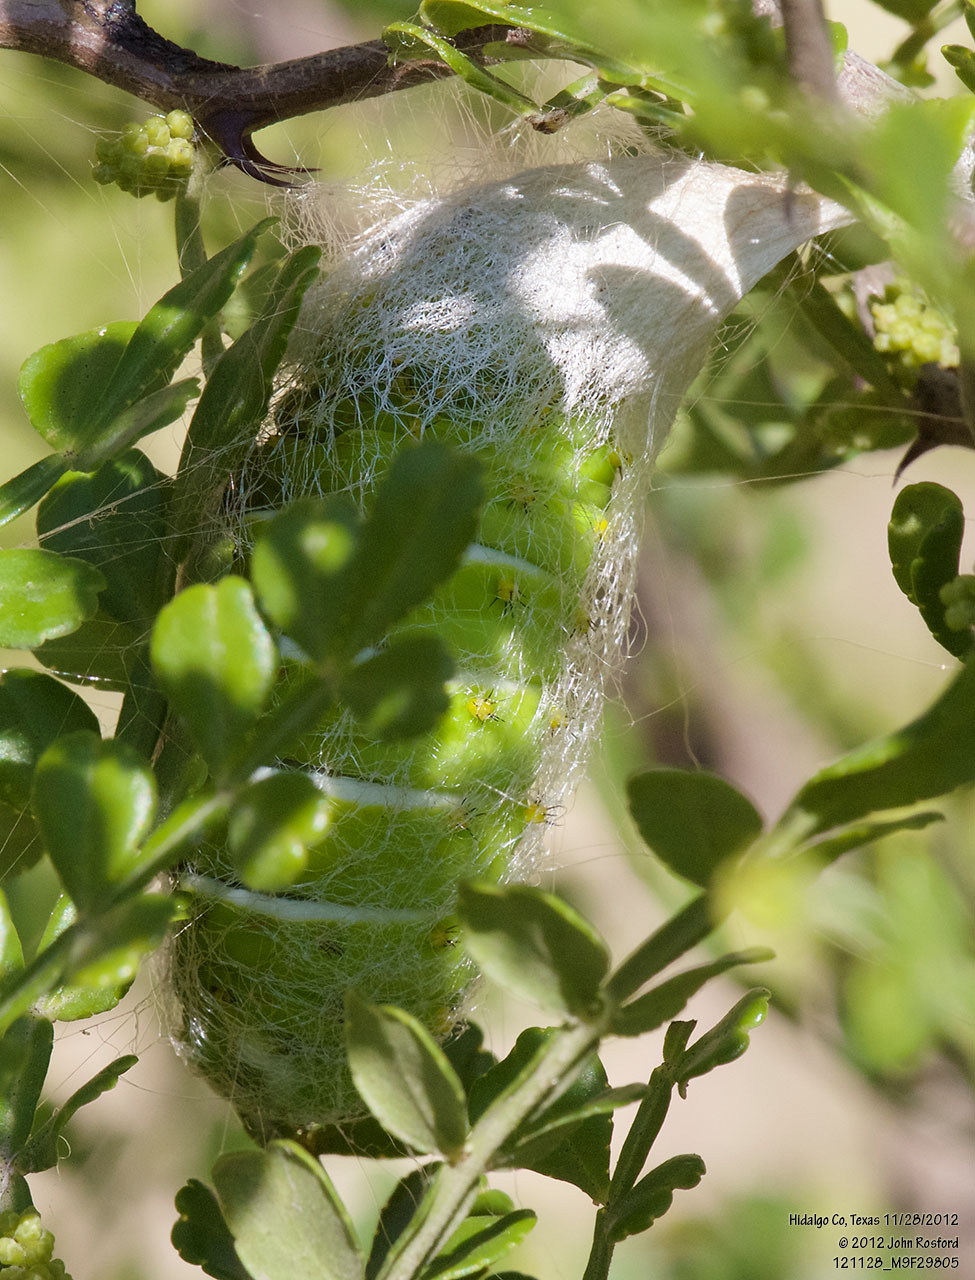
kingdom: Animalia
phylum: Arthropoda
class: Insecta
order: Lepidoptera
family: Saturniidae
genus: Rothschildia
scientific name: Rothschildia lebeau
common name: Lebeau's rothschildia
